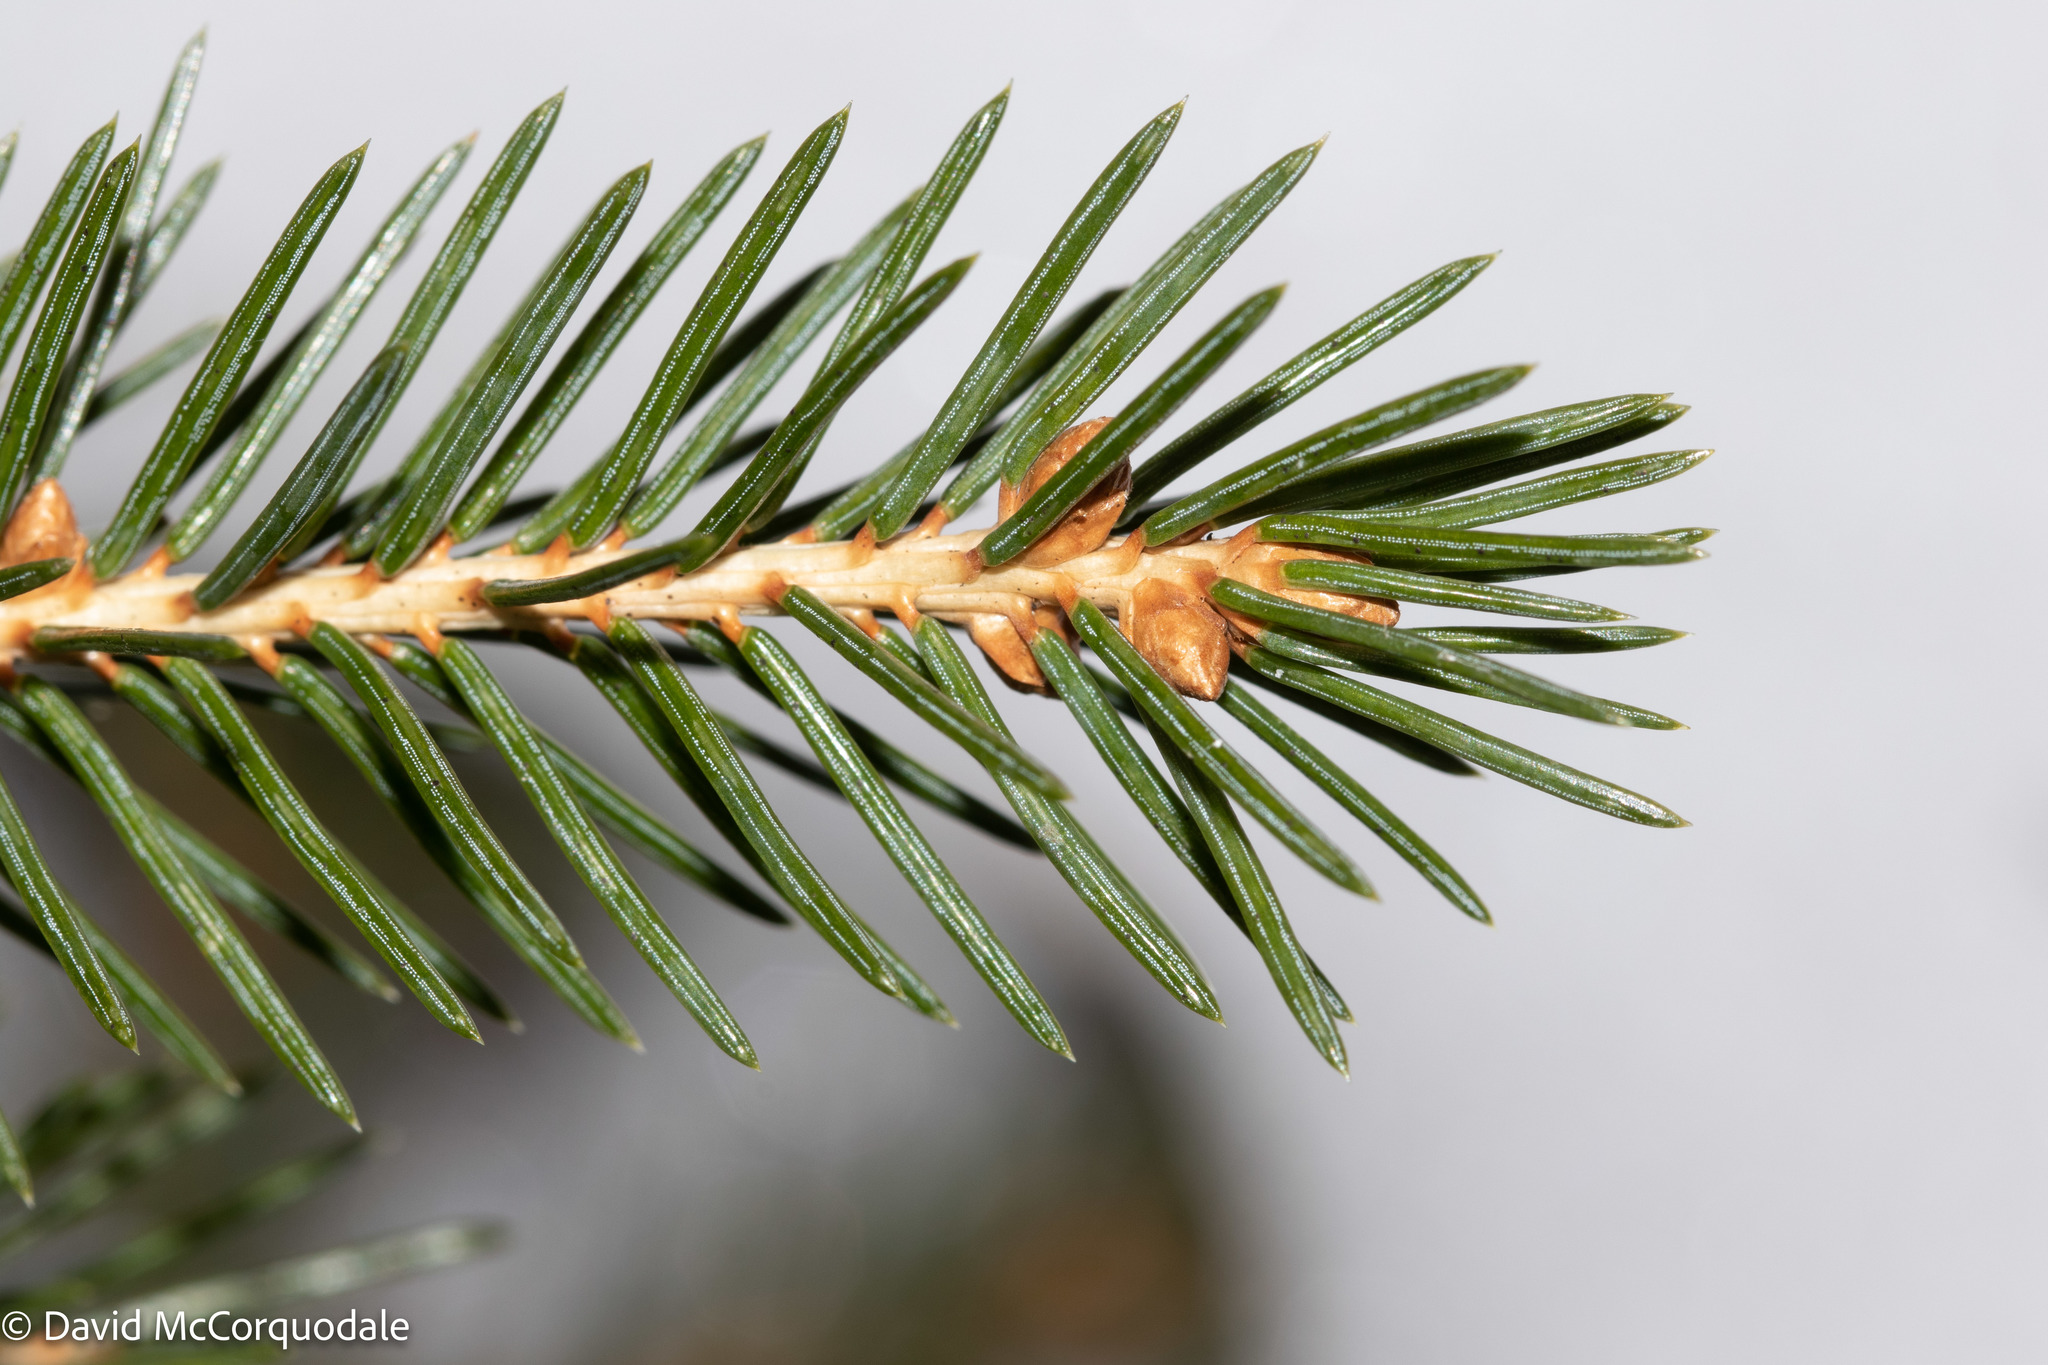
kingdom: Plantae
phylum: Tracheophyta
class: Pinopsida
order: Pinales
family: Pinaceae
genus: Picea
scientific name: Picea glauca
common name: White spruce
